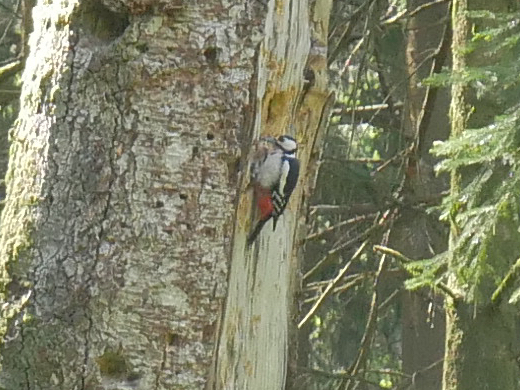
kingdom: Animalia
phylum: Chordata
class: Aves
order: Piciformes
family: Picidae
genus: Dendrocopos
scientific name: Dendrocopos major
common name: Great spotted woodpecker
